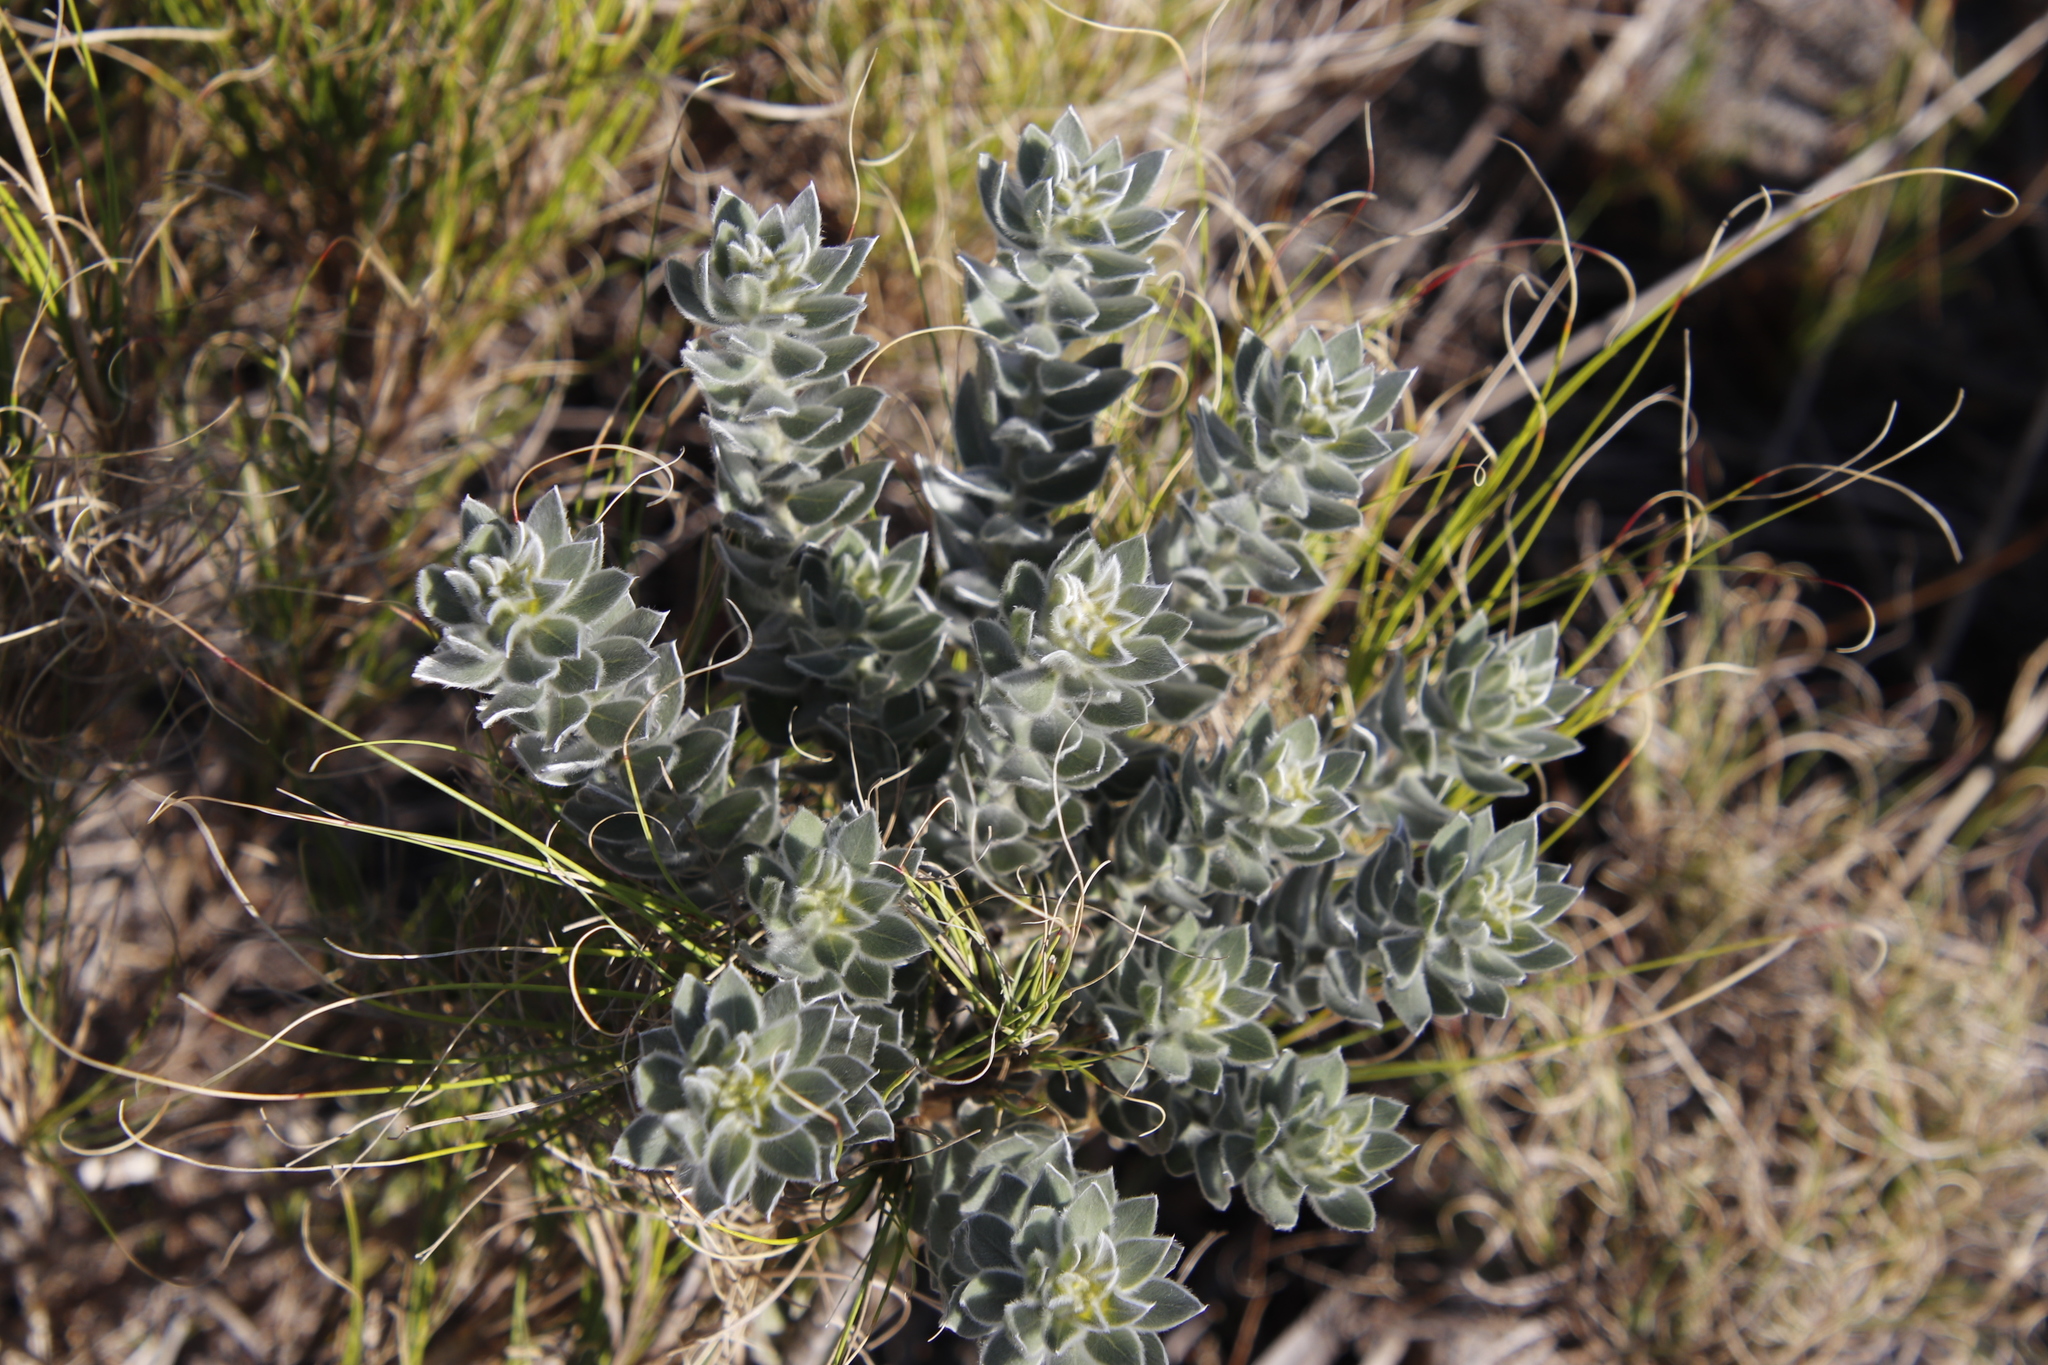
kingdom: Plantae
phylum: Tracheophyta
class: Magnoliopsida
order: Fabales
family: Fabaceae
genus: Xiphotheca
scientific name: Xiphotheca fruticosa
